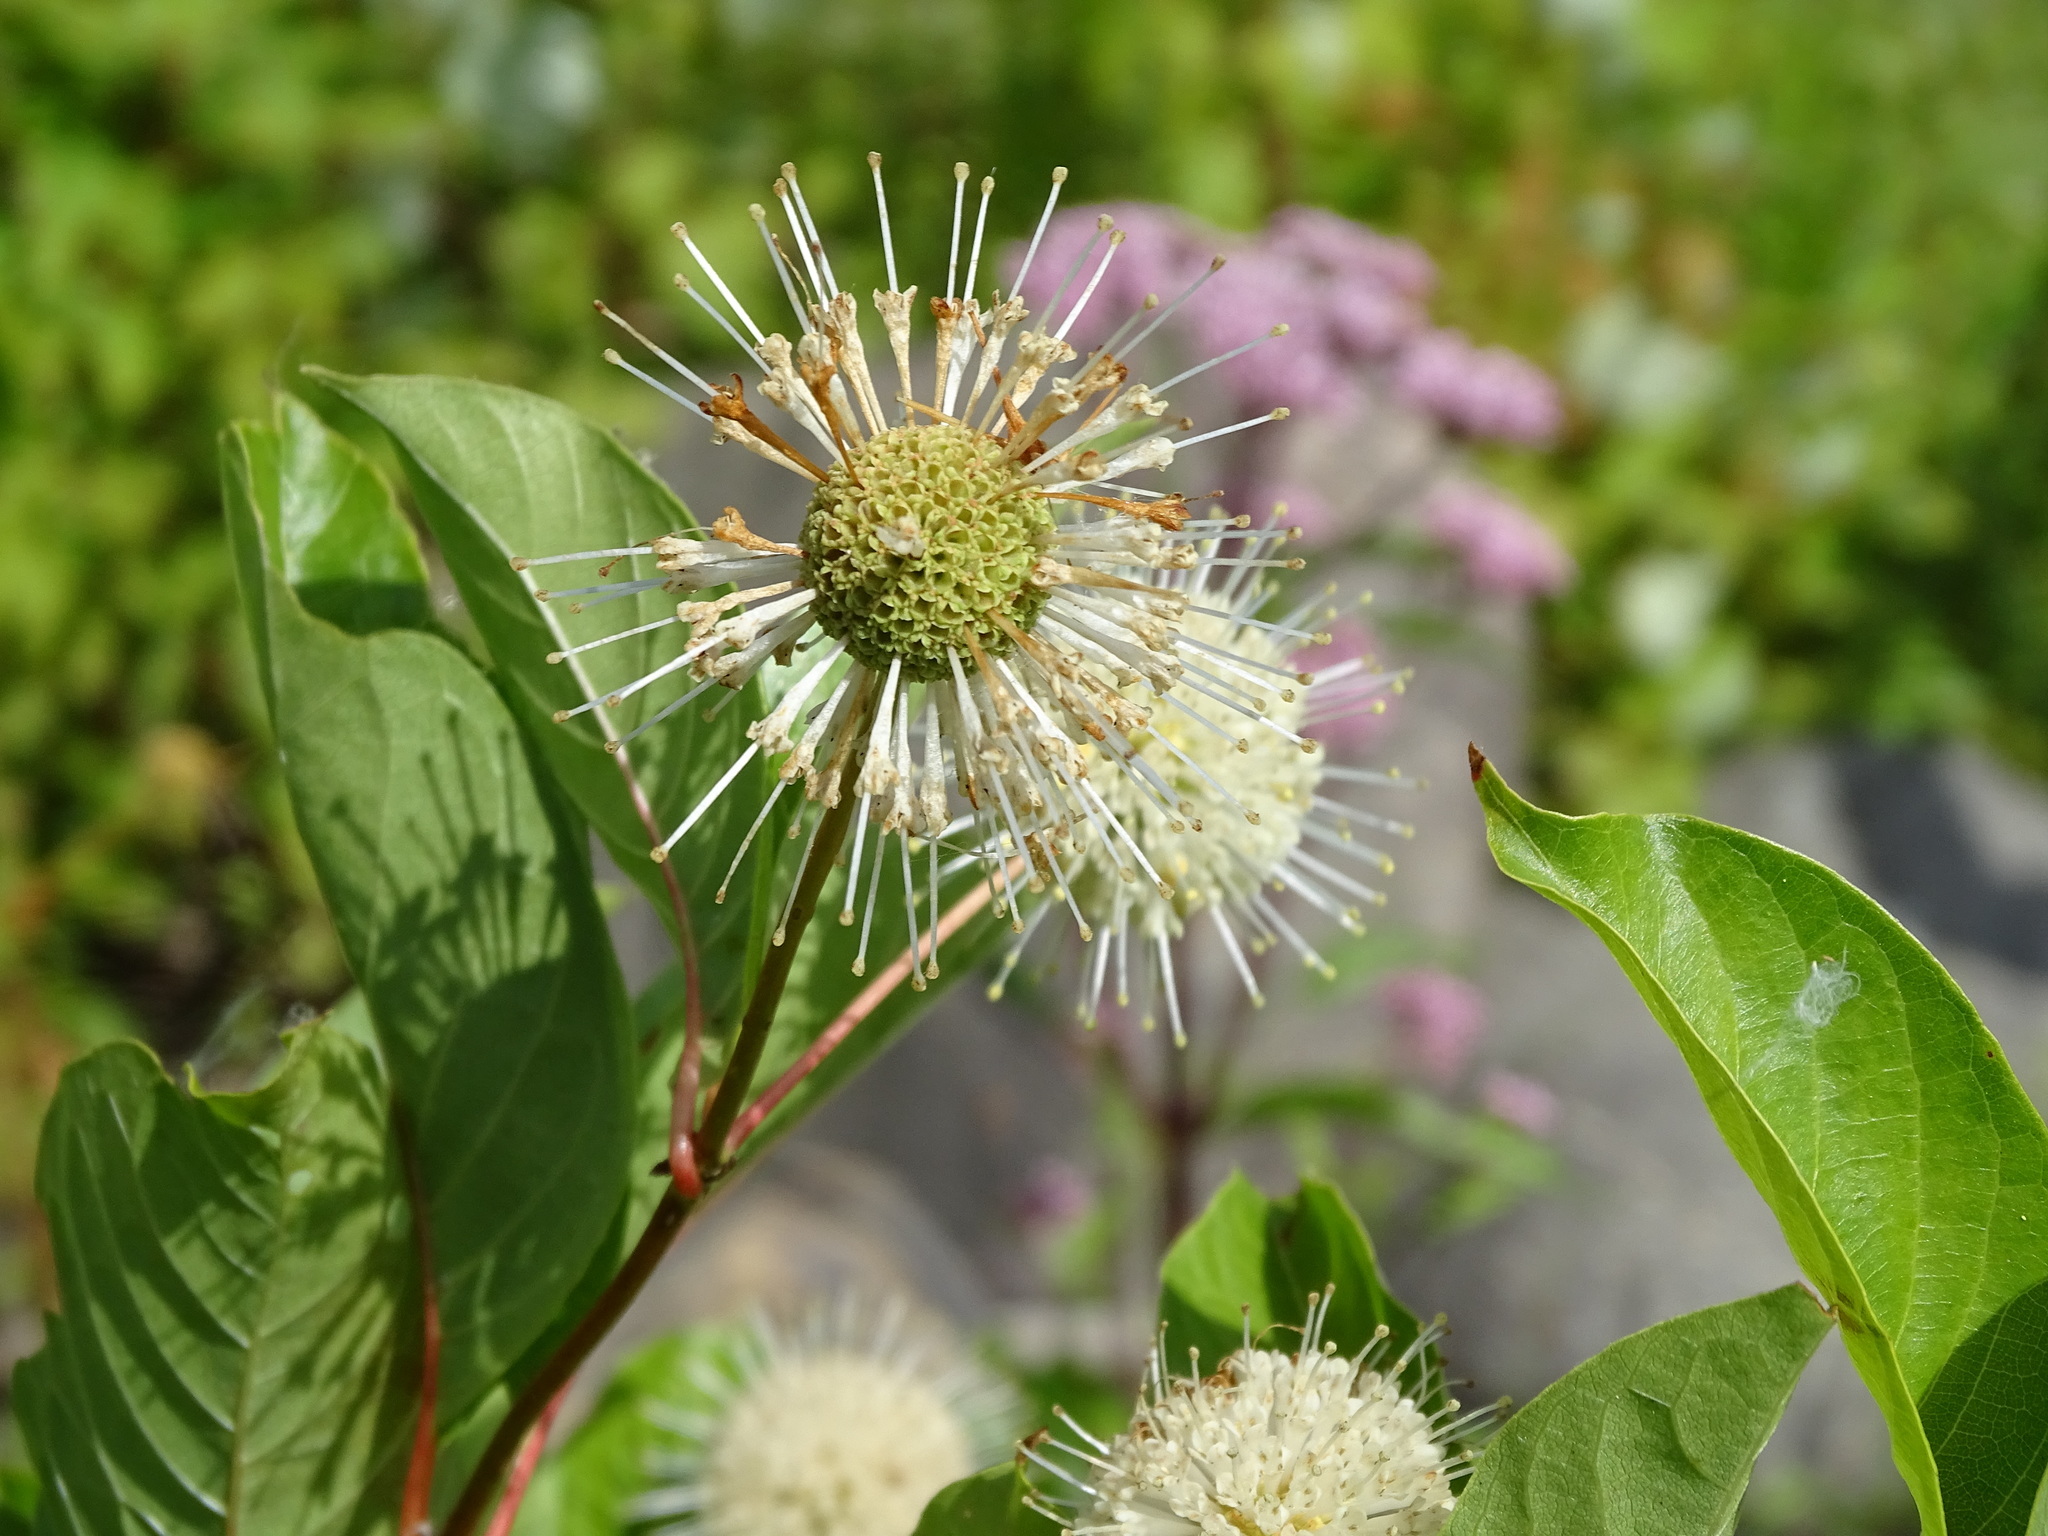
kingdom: Plantae
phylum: Tracheophyta
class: Magnoliopsida
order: Gentianales
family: Rubiaceae
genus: Cephalanthus
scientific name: Cephalanthus occidentalis
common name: Button-willow
